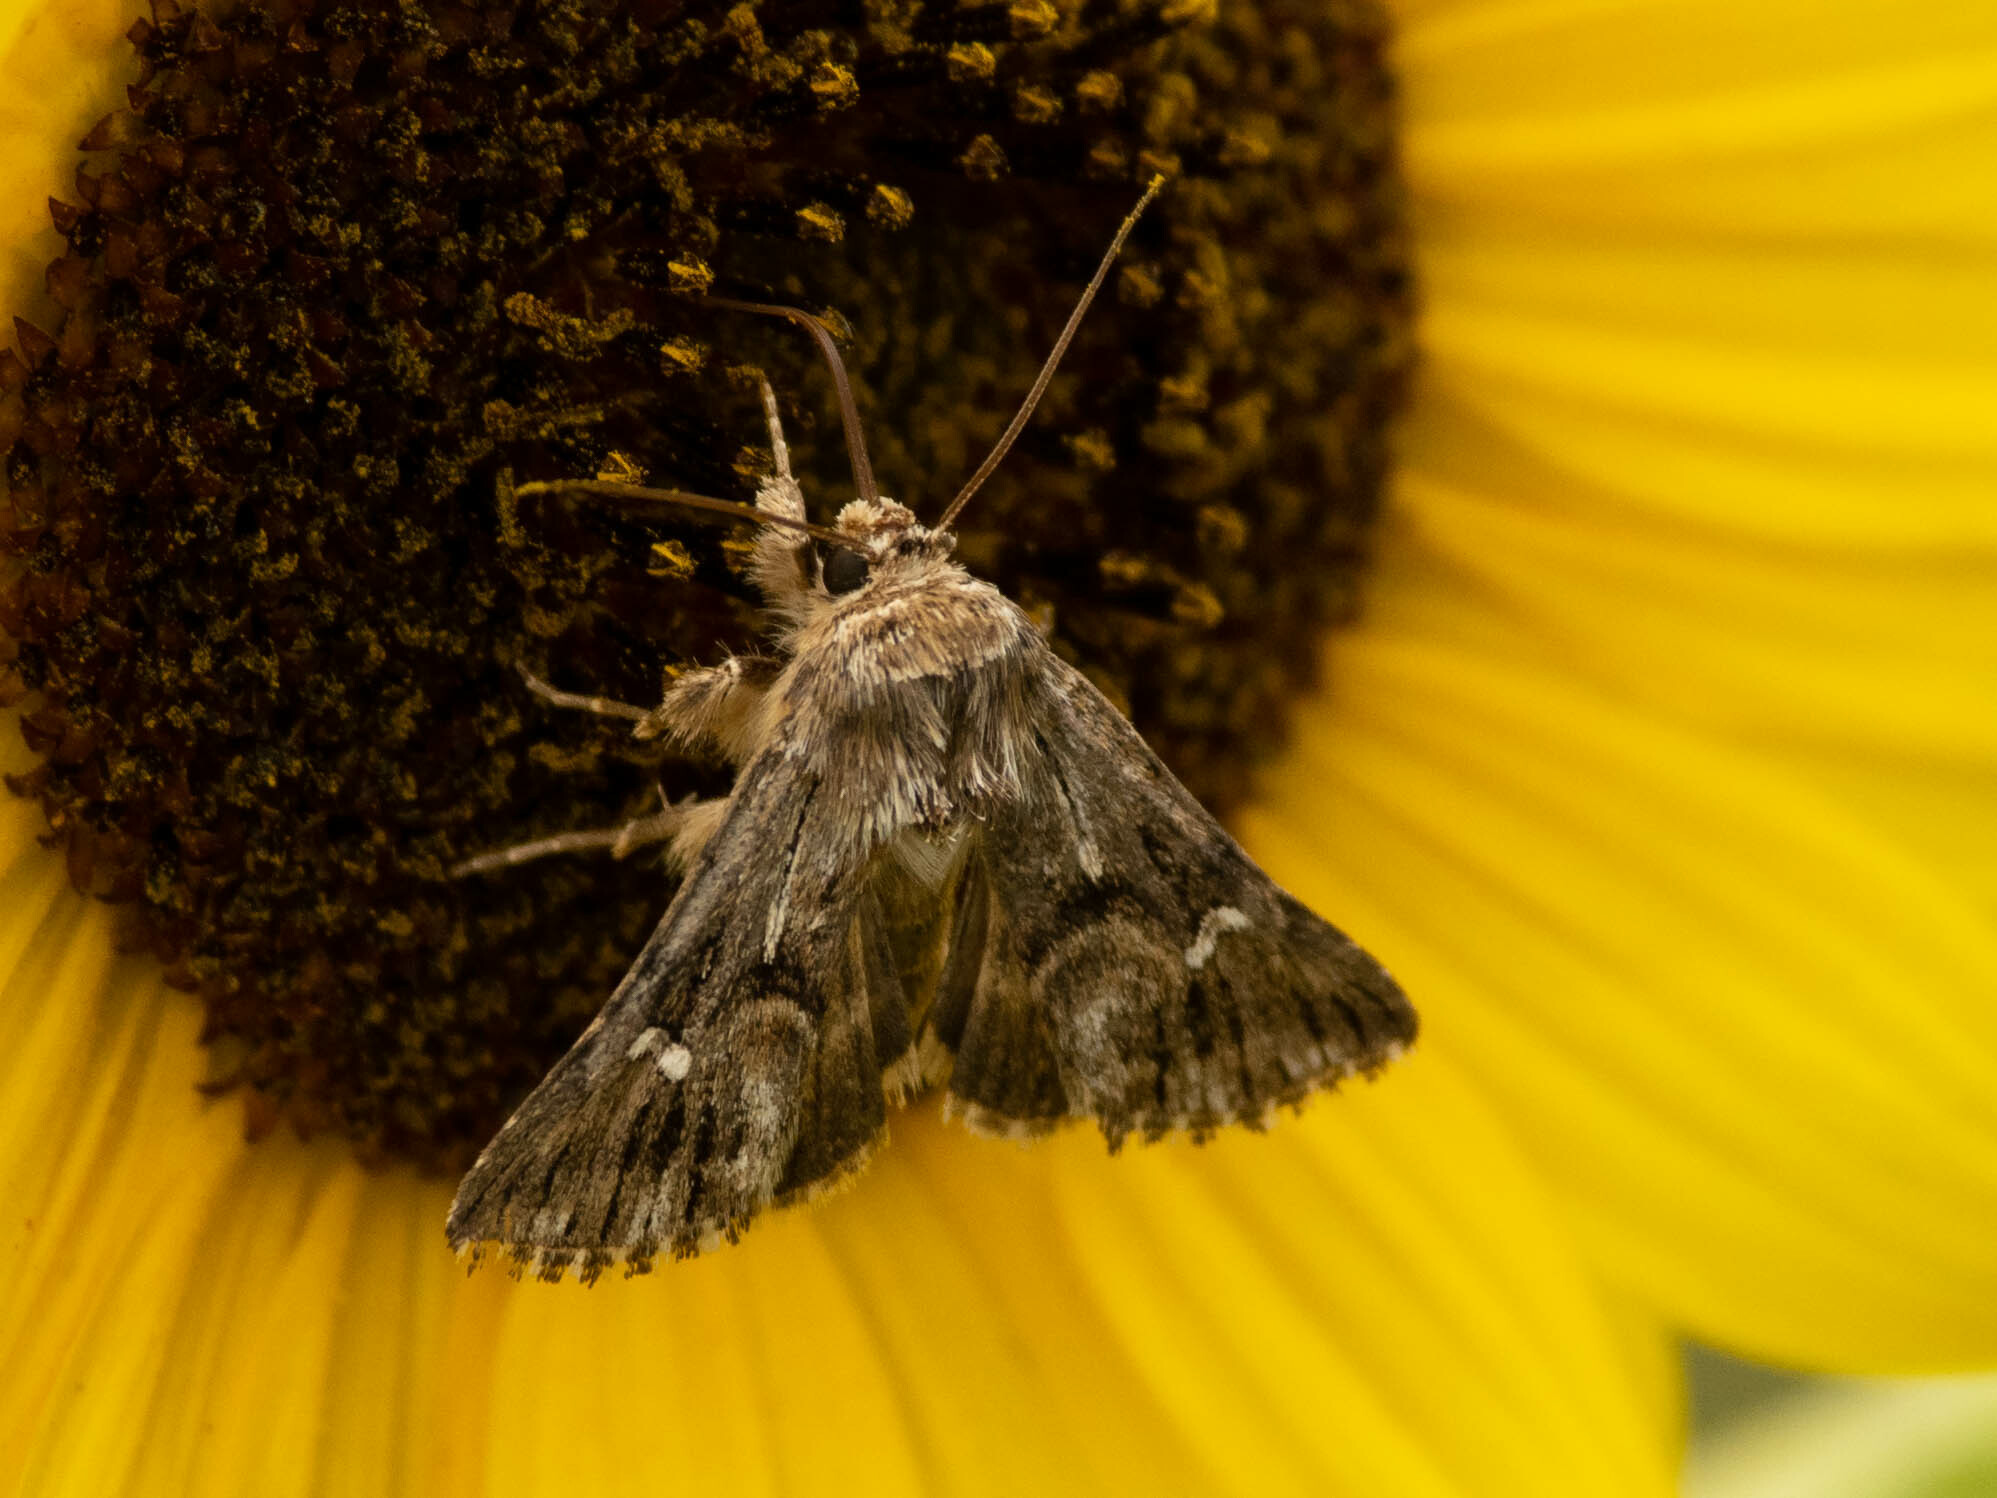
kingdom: Animalia
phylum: Arthropoda
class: Insecta
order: Lepidoptera
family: Noctuidae
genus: Calophasia
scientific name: Calophasia lunula
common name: Toadflax brocade
